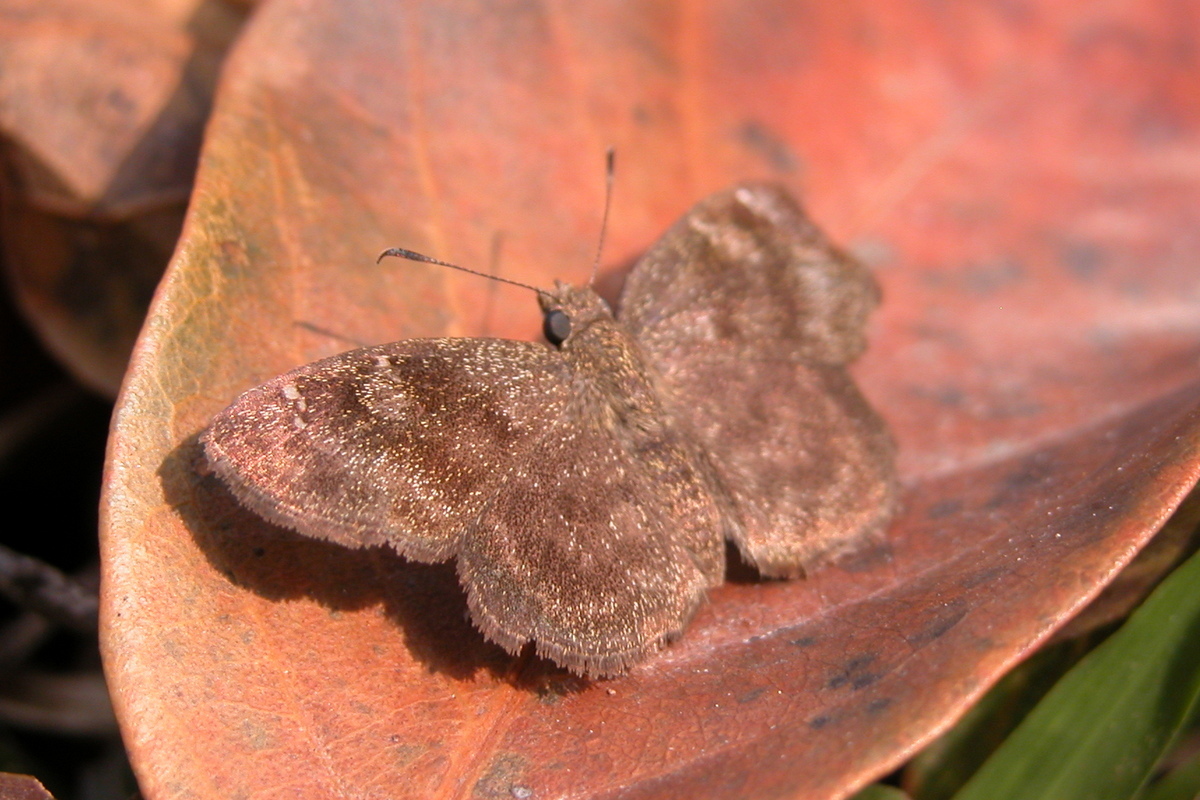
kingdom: Animalia
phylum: Arthropoda
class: Insecta
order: Lepidoptera
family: Hesperiidae
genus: Sarangesa
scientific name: Sarangesa dasahara
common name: Common small flat
